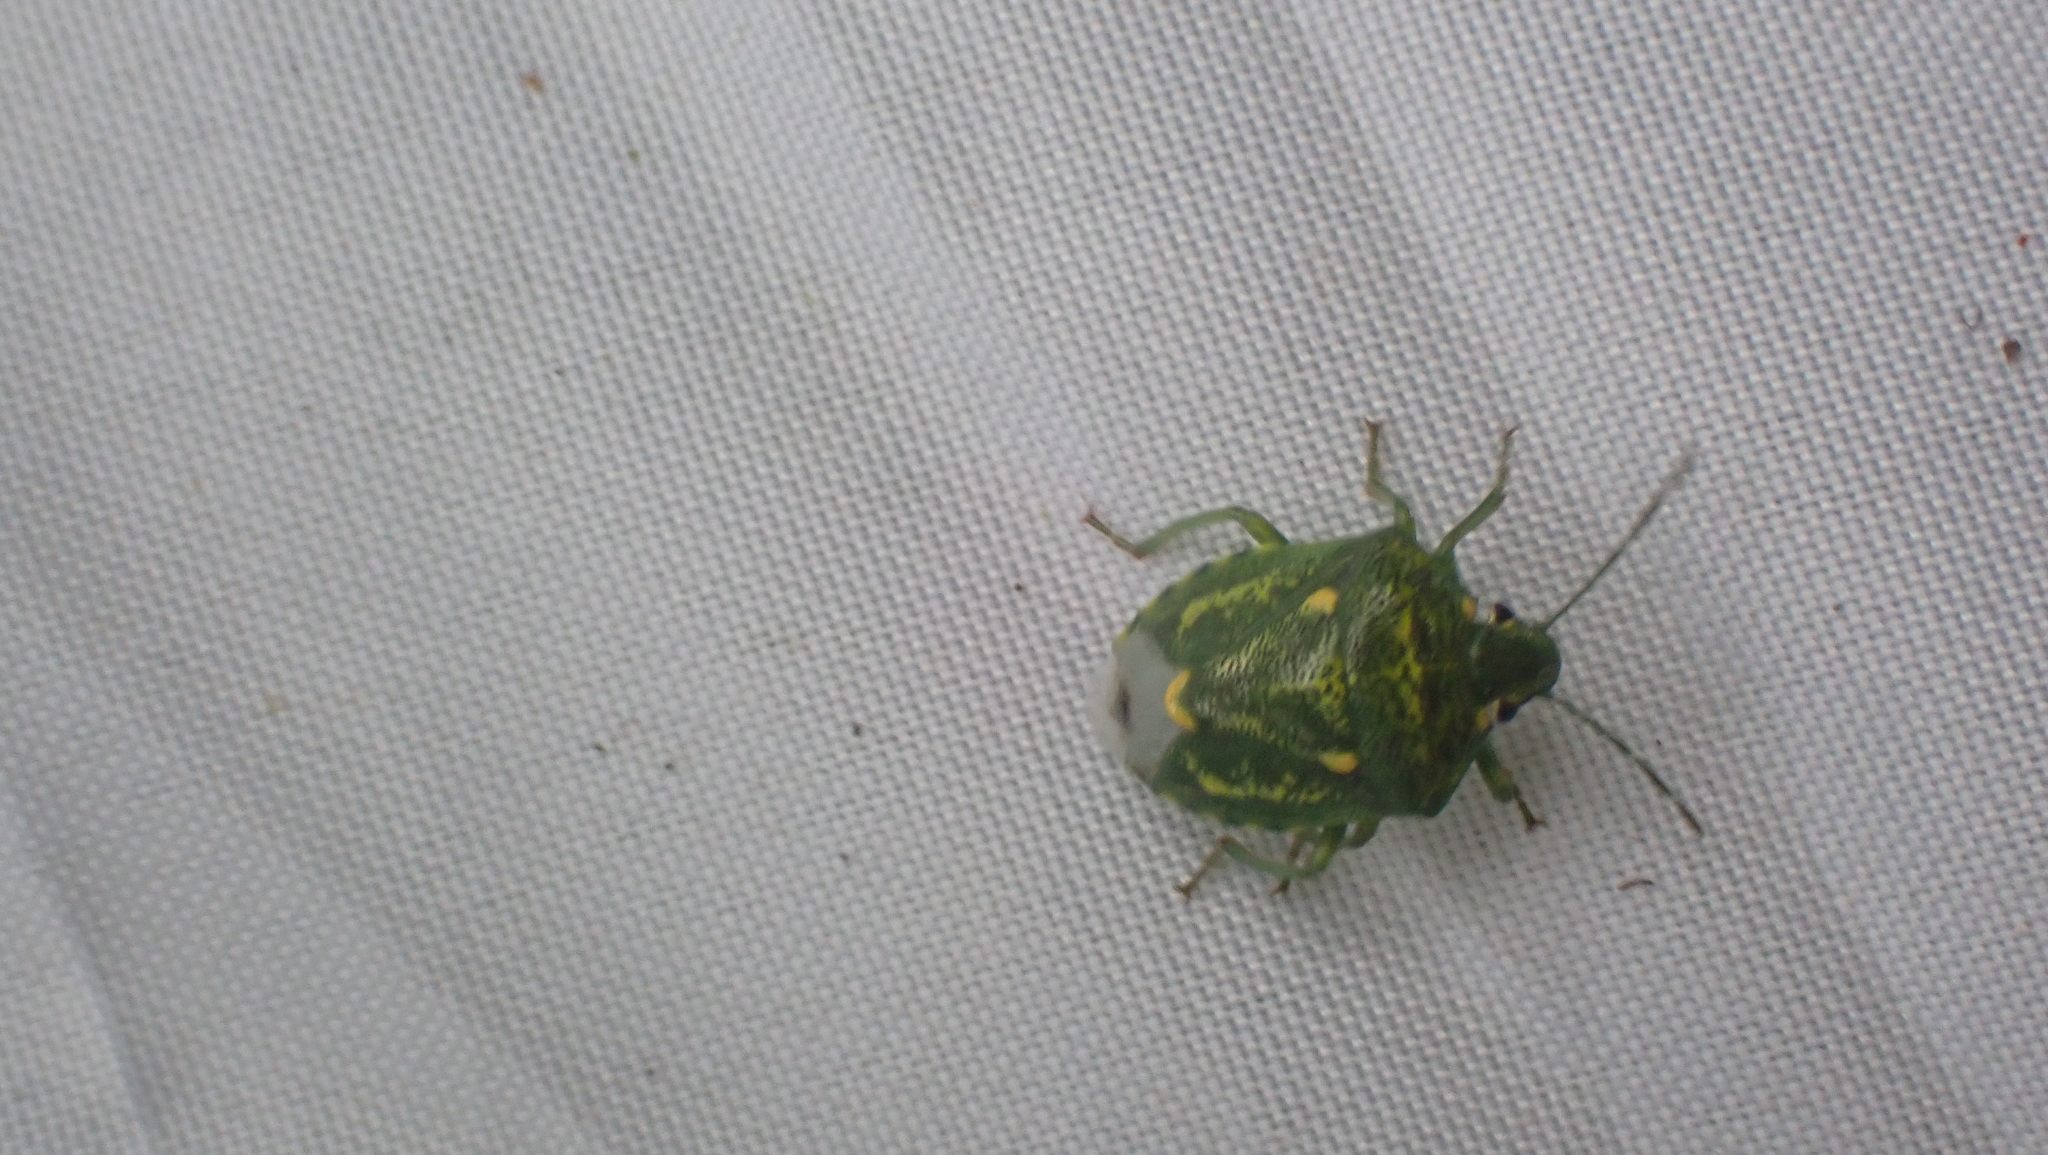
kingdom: Animalia
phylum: Arthropoda
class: Insecta
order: Hemiptera
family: Pentatomidae
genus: Banasa
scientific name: Banasa euchlora
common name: Cedar berry bug
